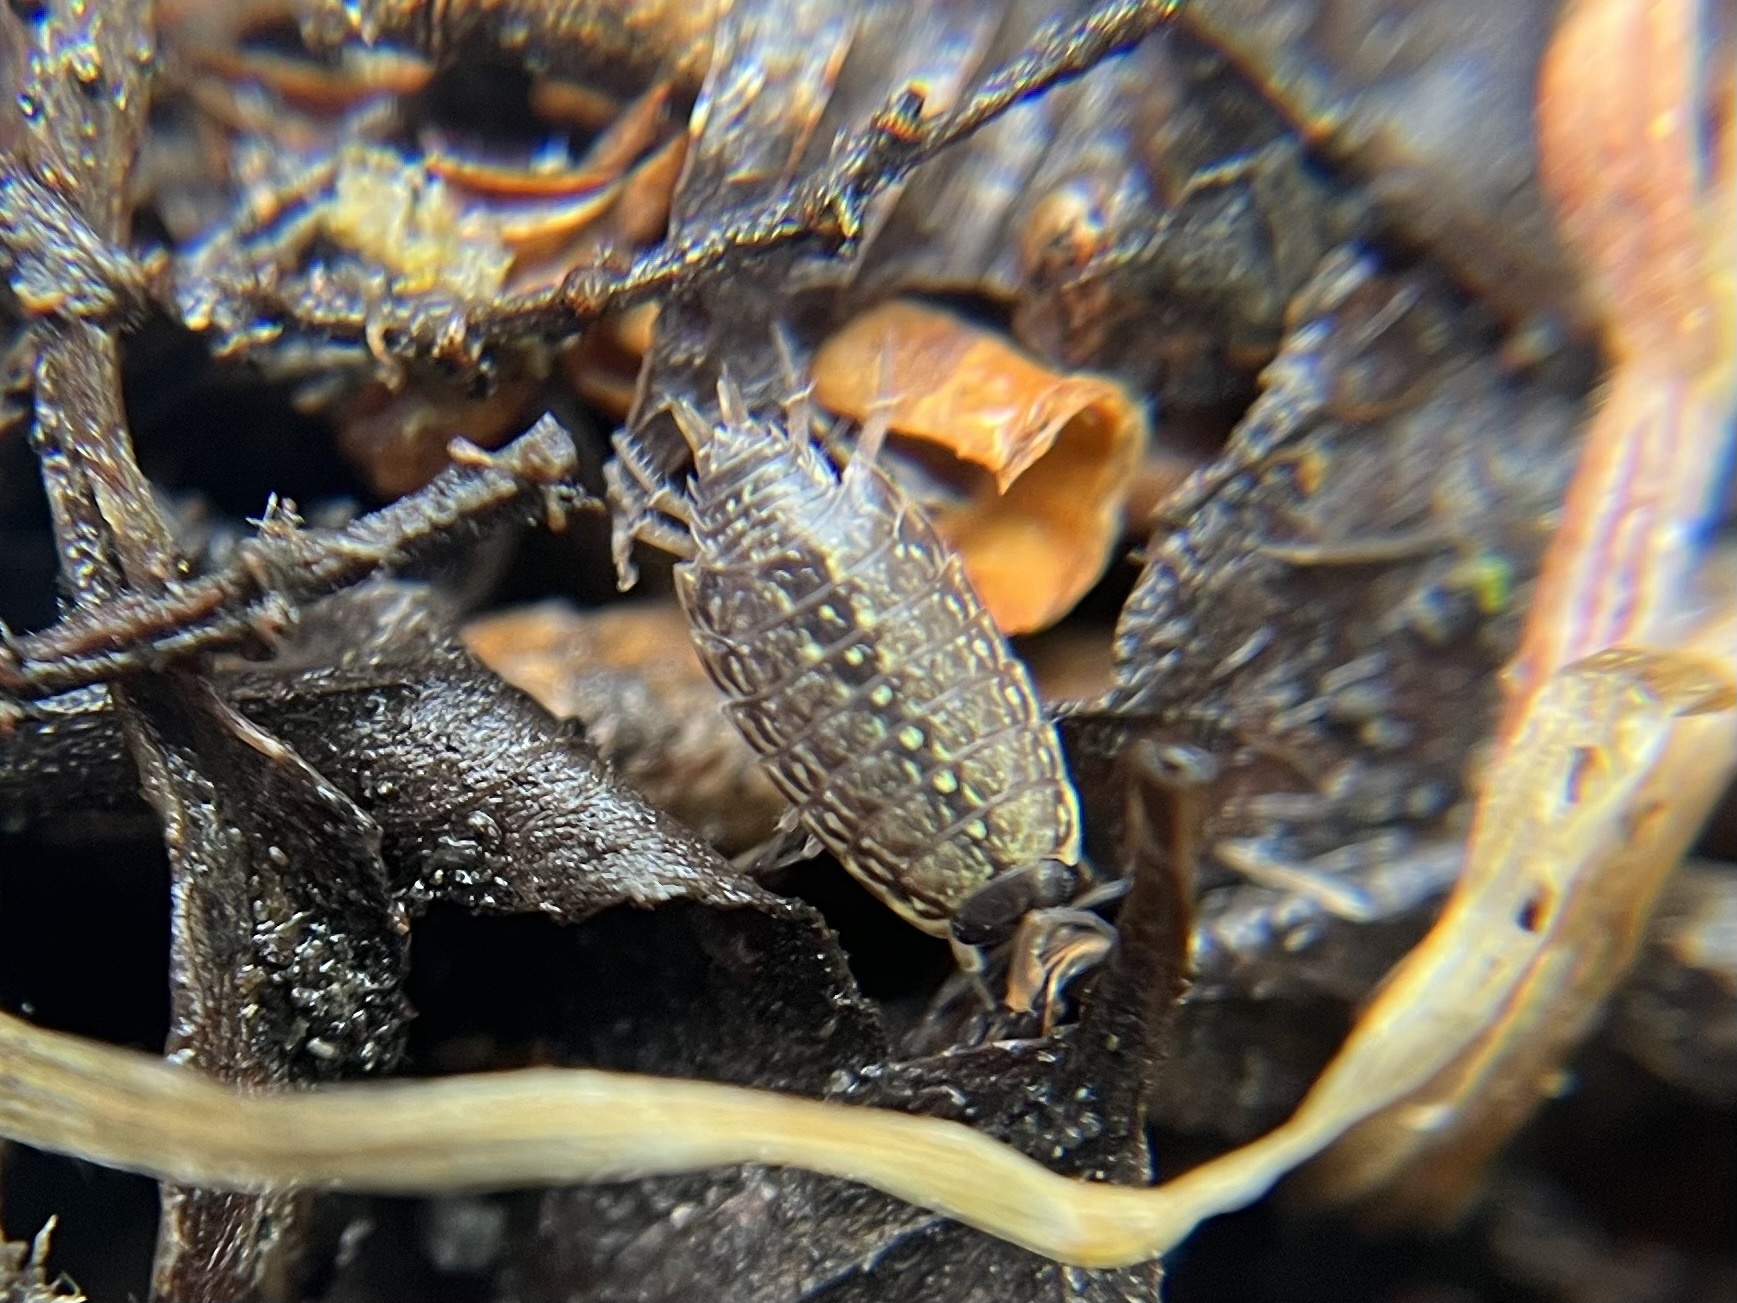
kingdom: Animalia
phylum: Arthropoda
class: Malacostraca
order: Isopoda
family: Philosciidae
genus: Philoscia
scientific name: Philoscia muscorum
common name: Common striped woodlouse
